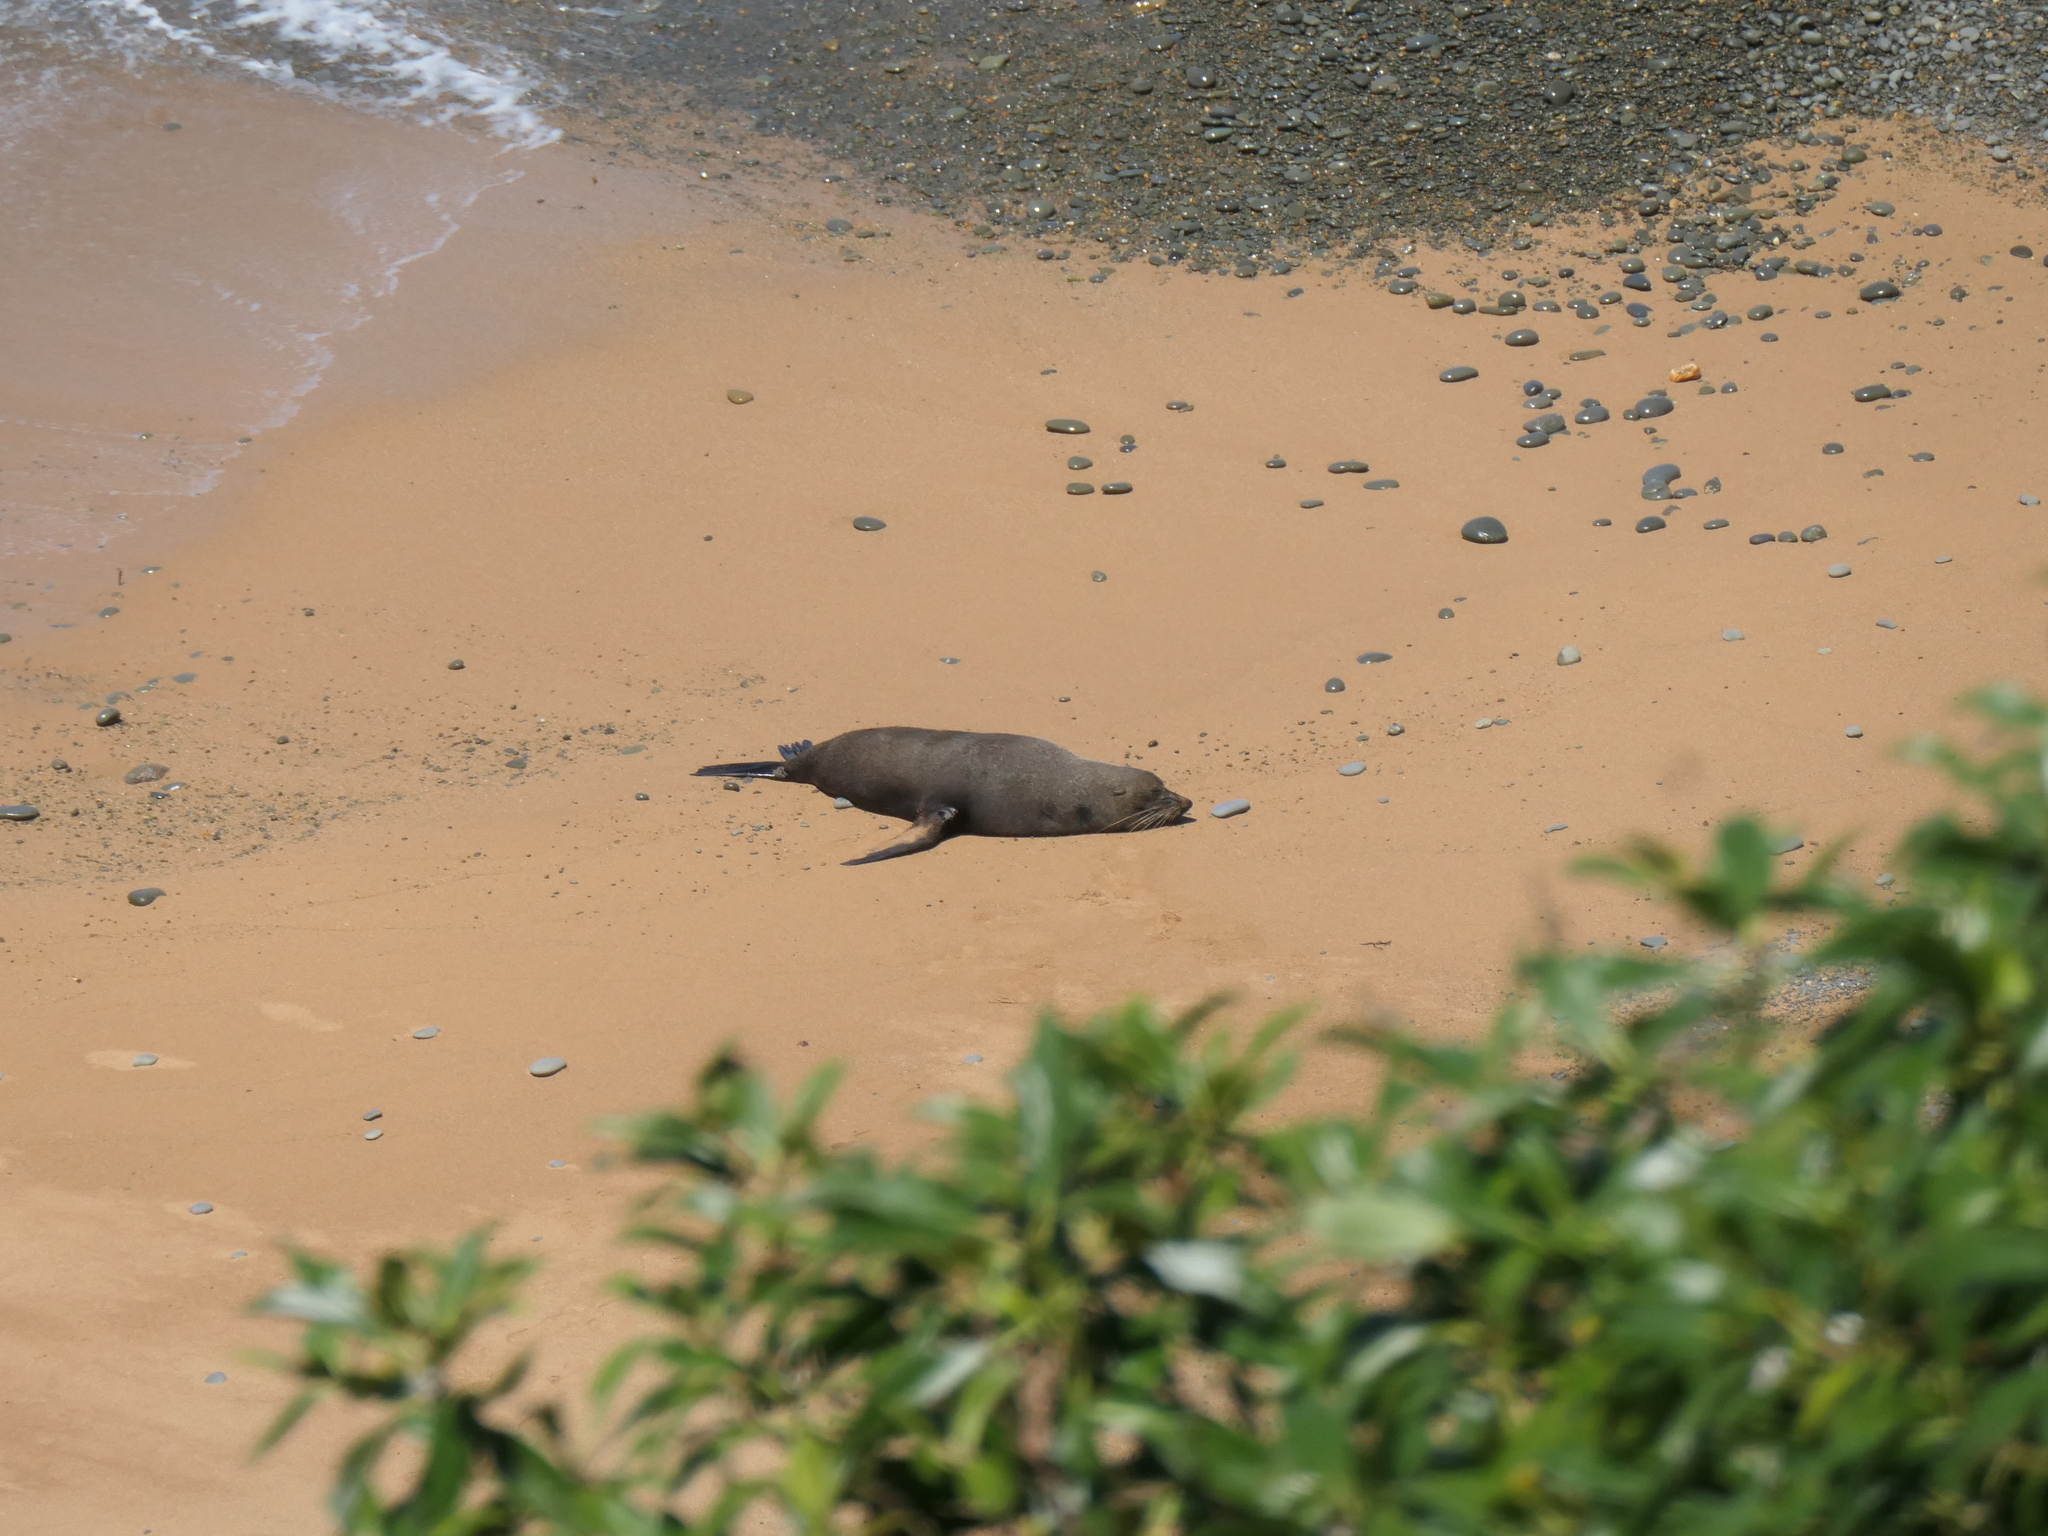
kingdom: Animalia
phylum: Chordata
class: Mammalia
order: Carnivora
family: Otariidae
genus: Arctocephalus
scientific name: Arctocephalus forsteri
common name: New zealand fur seal
